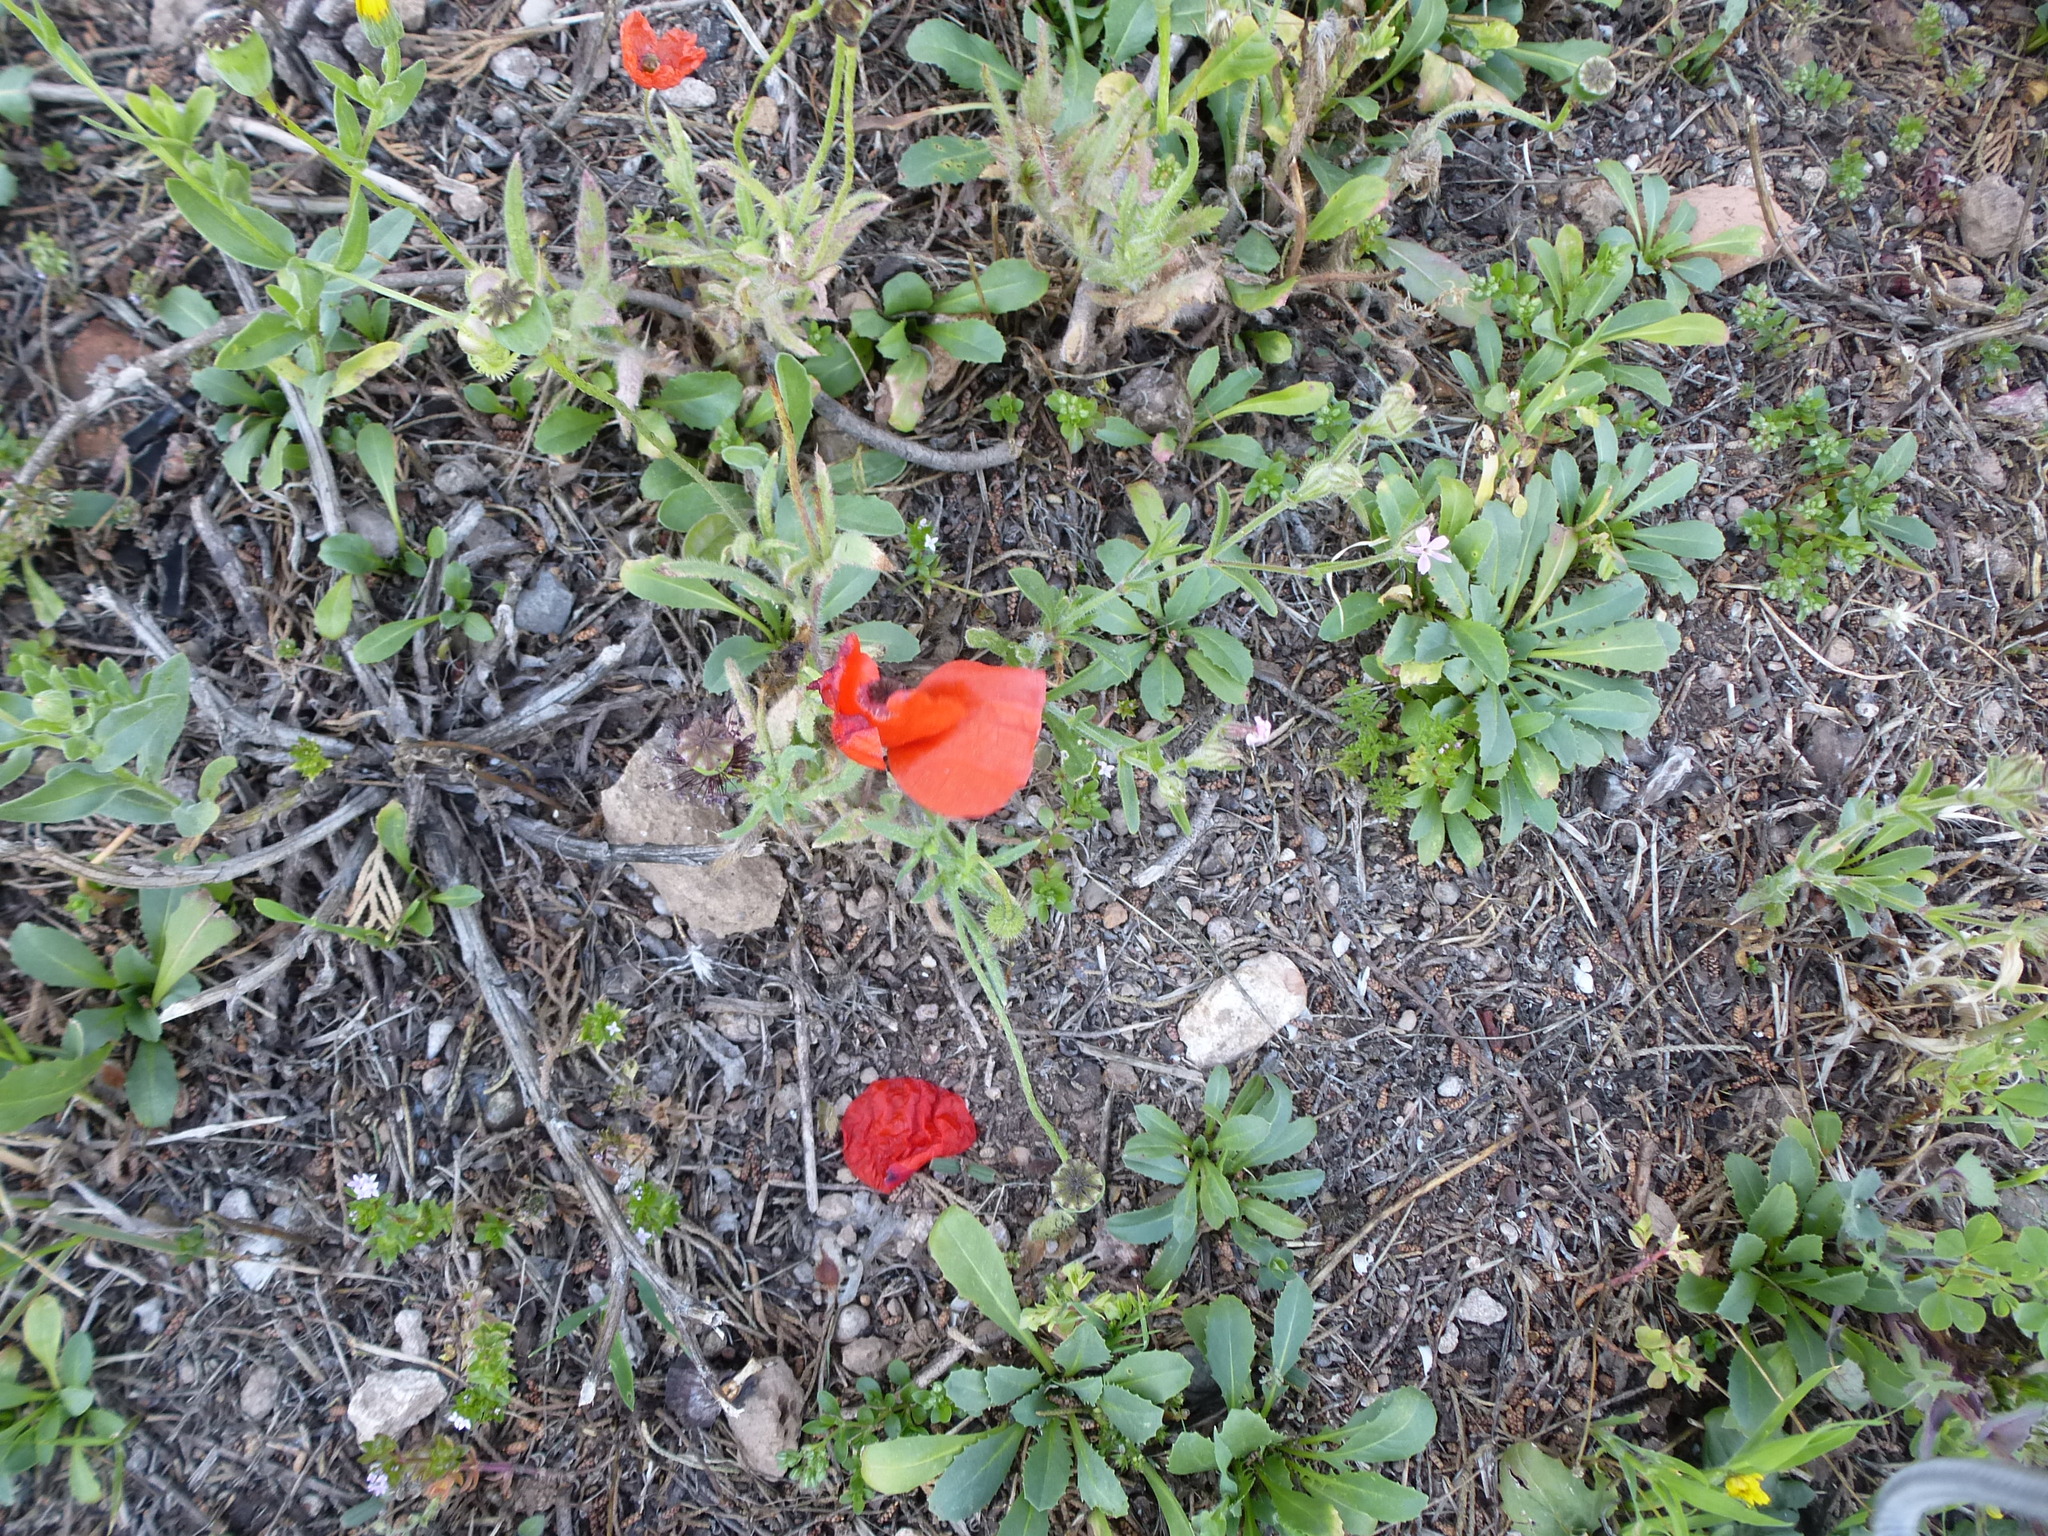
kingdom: Plantae
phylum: Tracheophyta
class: Magnoliopsida
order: Ranunculales
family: Papaveraceae
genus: Papaver
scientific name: Papaver rhoeas
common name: Corn poppy
